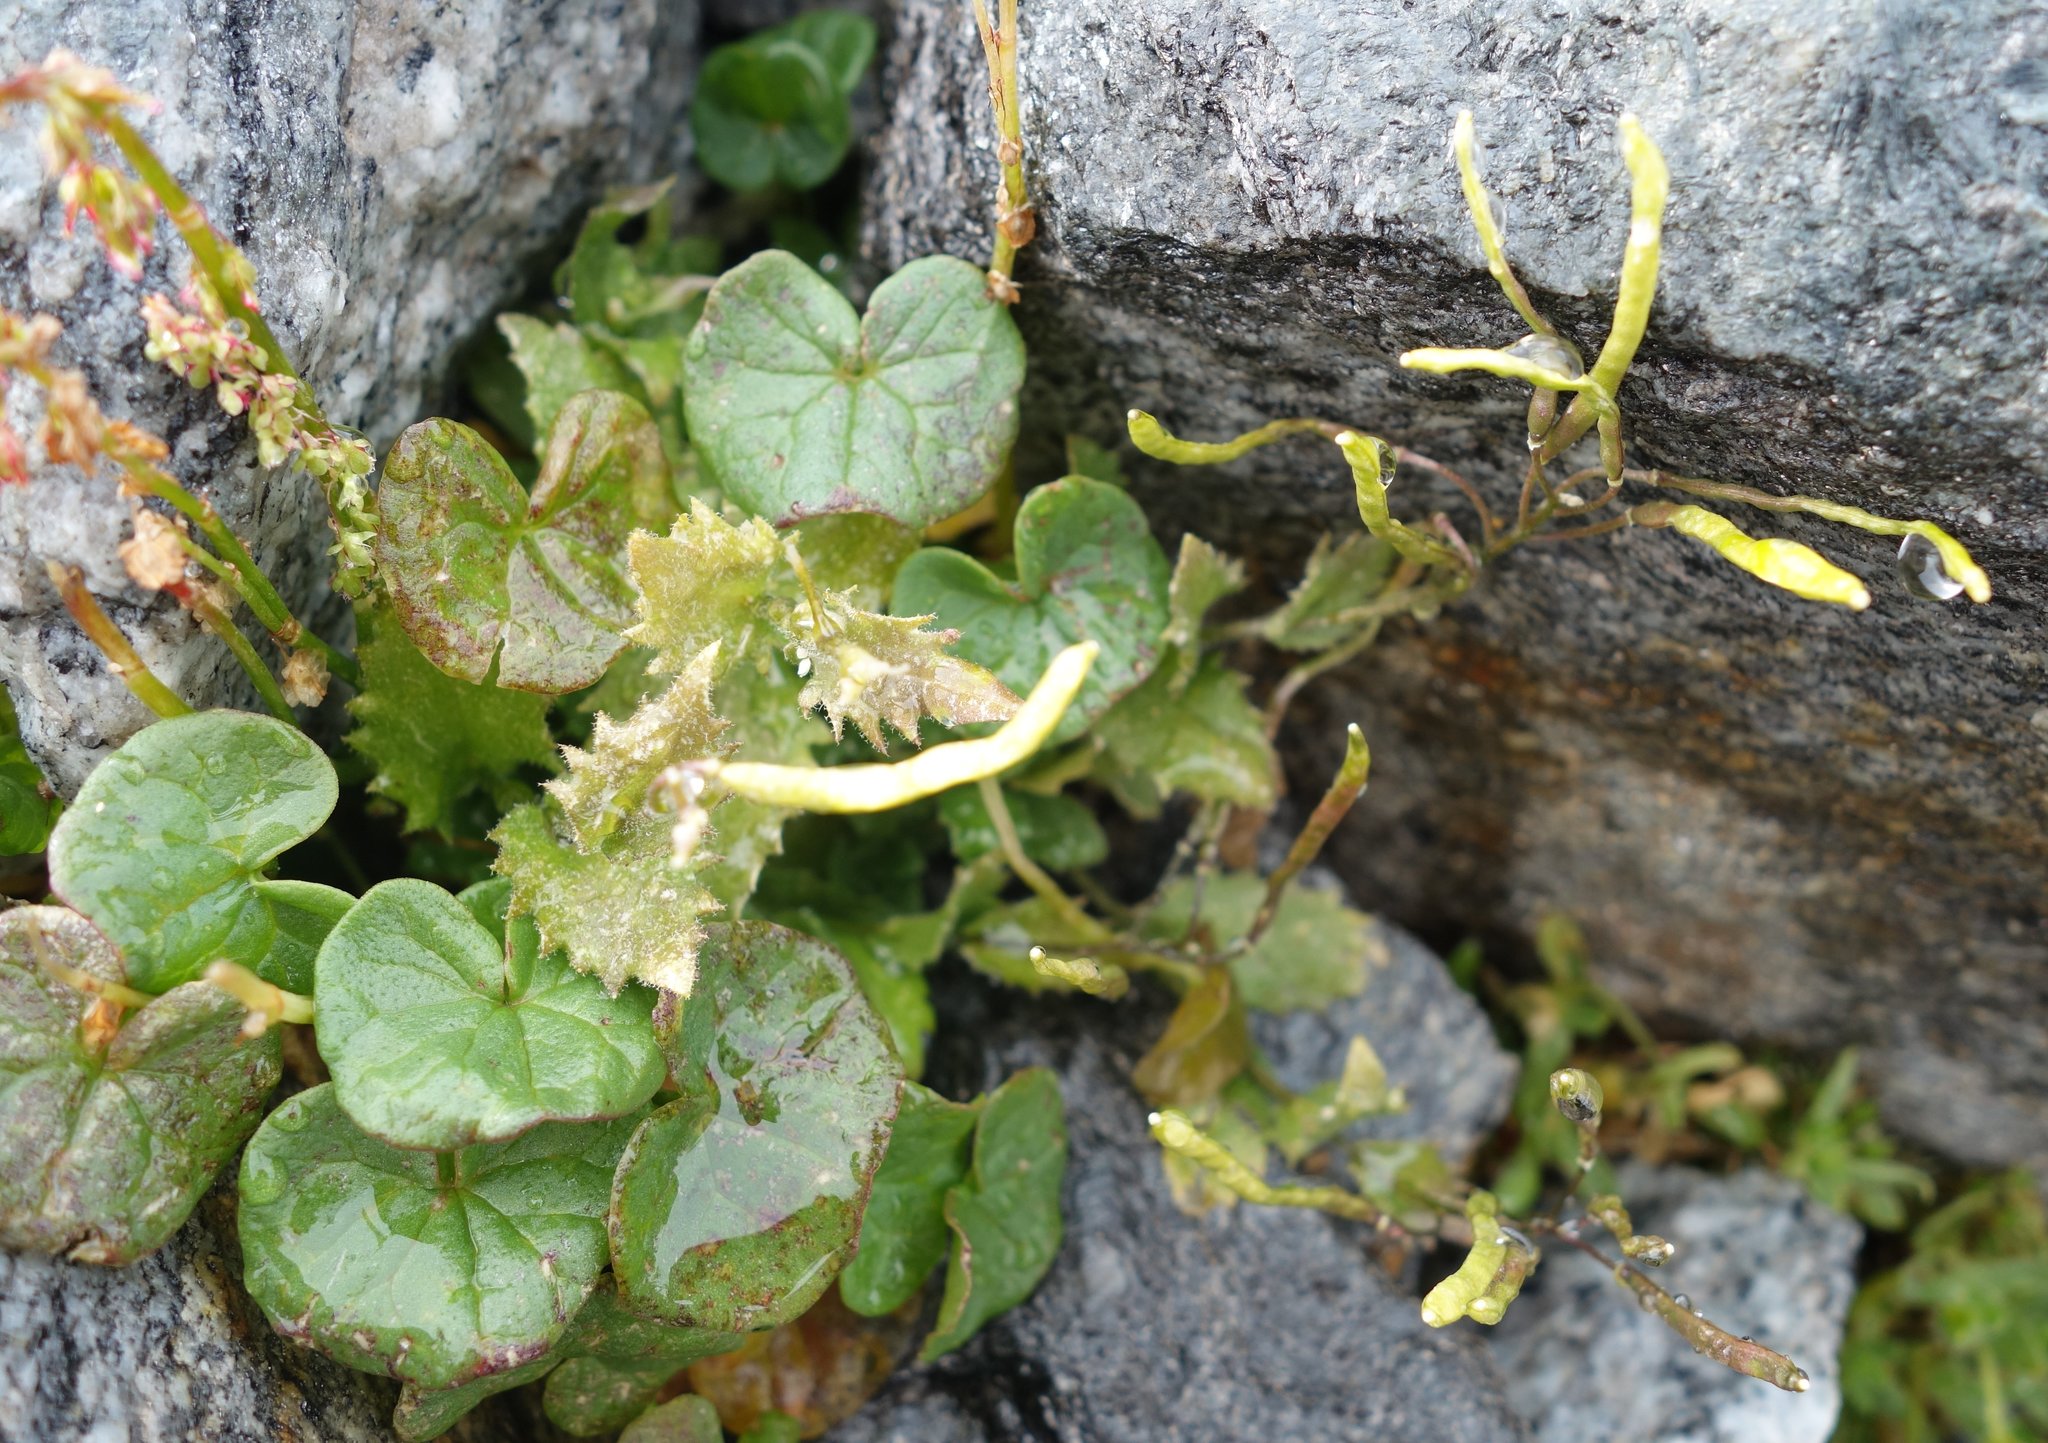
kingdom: Plantae
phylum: Tracheophyta
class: Magnoliopsida
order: Caryophyllales
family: Polygonaceae
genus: Oxyria
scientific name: Oxyria digyna
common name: Alpine mountain-sorrel
